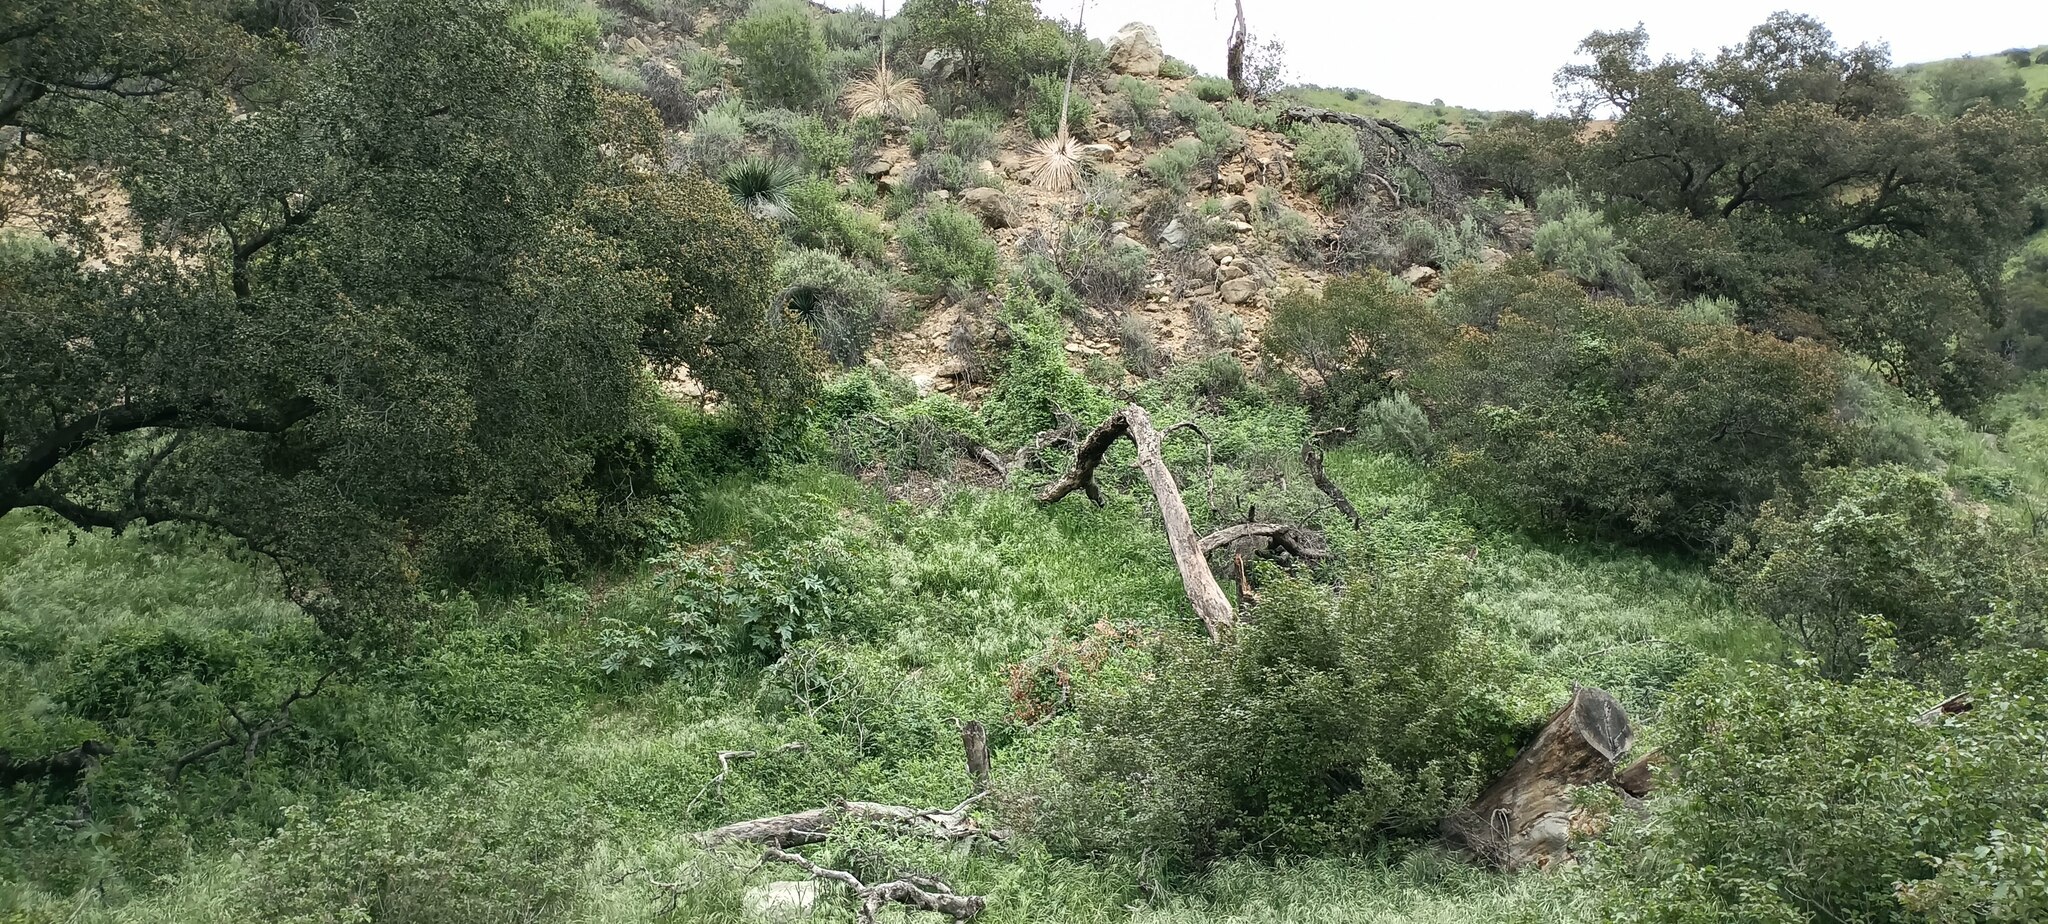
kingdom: Plantae
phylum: Tracheophyta
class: Magnoliopsida
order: Malpighiales
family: Euphorbiaceae
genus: Ricinus
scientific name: Ricinus communis
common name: Castor-oil-plant
